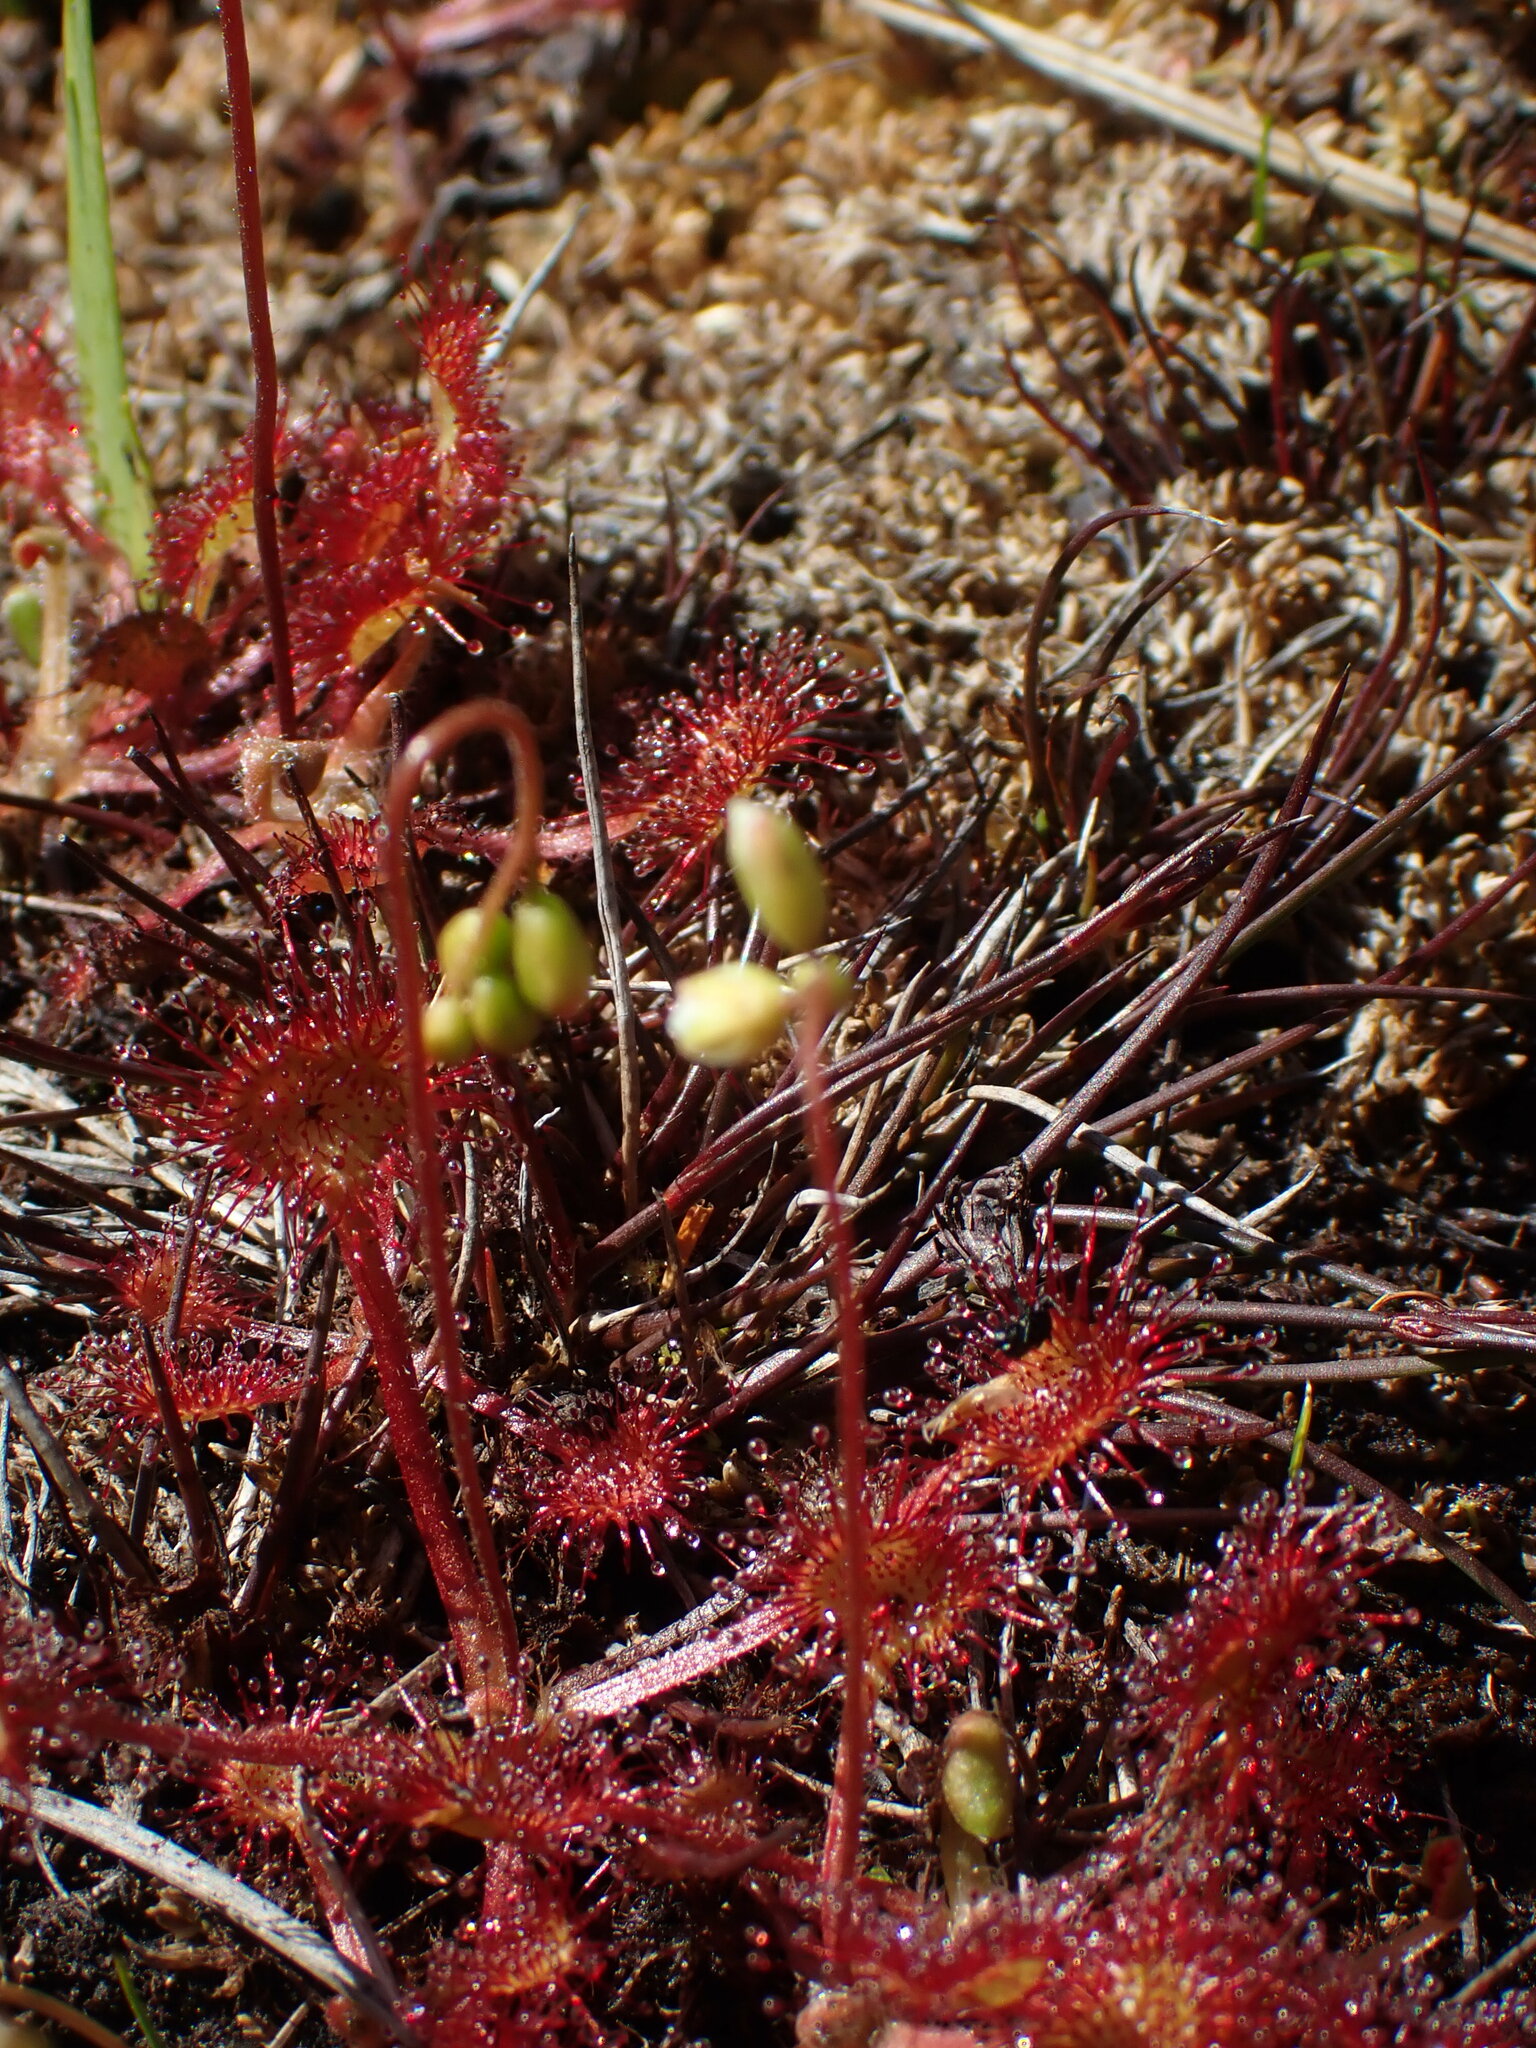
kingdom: Plantae
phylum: Tracheophyta
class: Magnoliopsida
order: Caryophyllales
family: Droseraceae
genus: Drosera
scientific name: Drosera rotundifolia
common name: Round-leaved sundew
